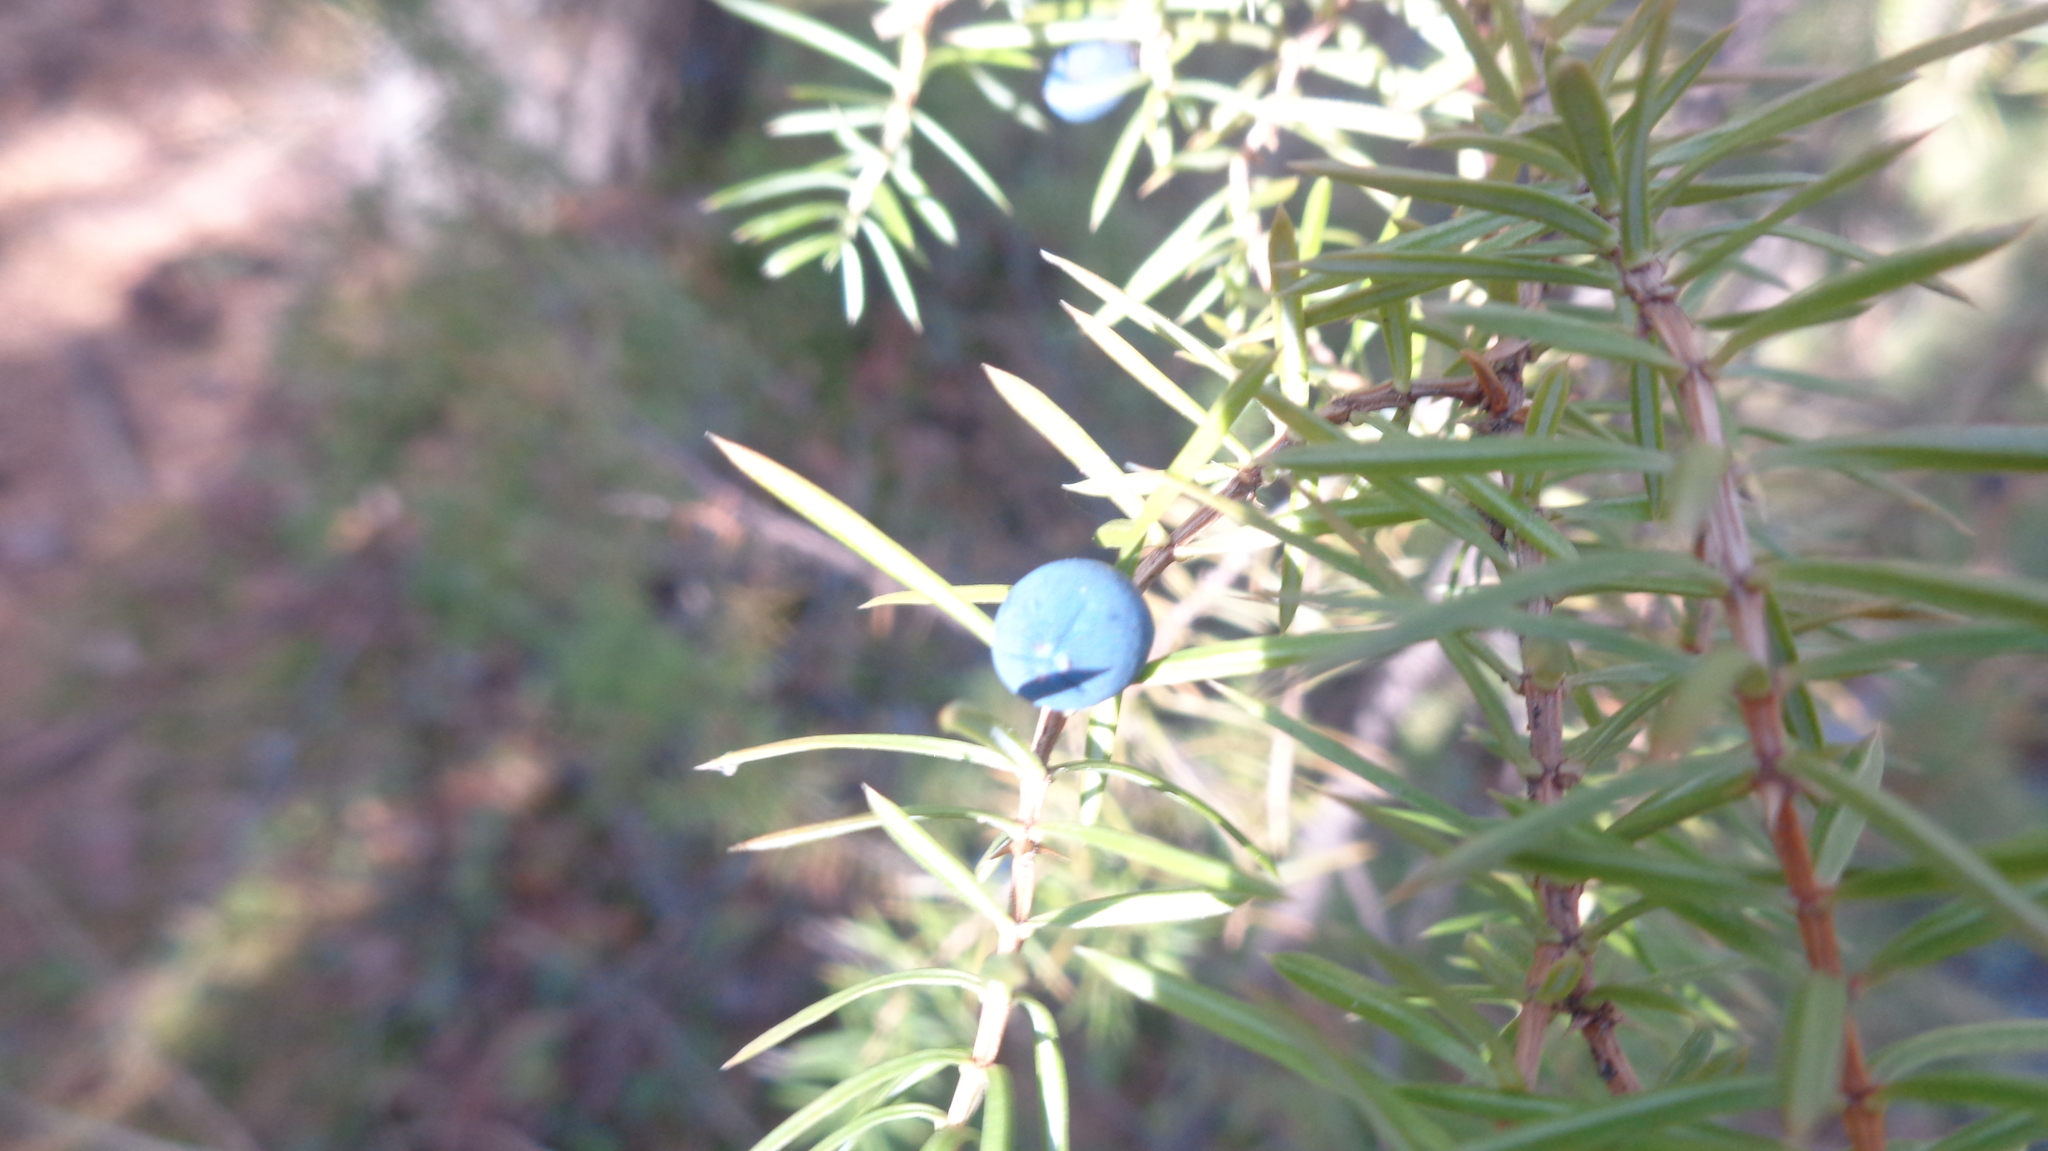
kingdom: Plantae
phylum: Tracheophyta
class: Pinopsida
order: Pinales
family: Cupressaceae
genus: Juniperus
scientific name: Juniperus communis
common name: Common juniper
